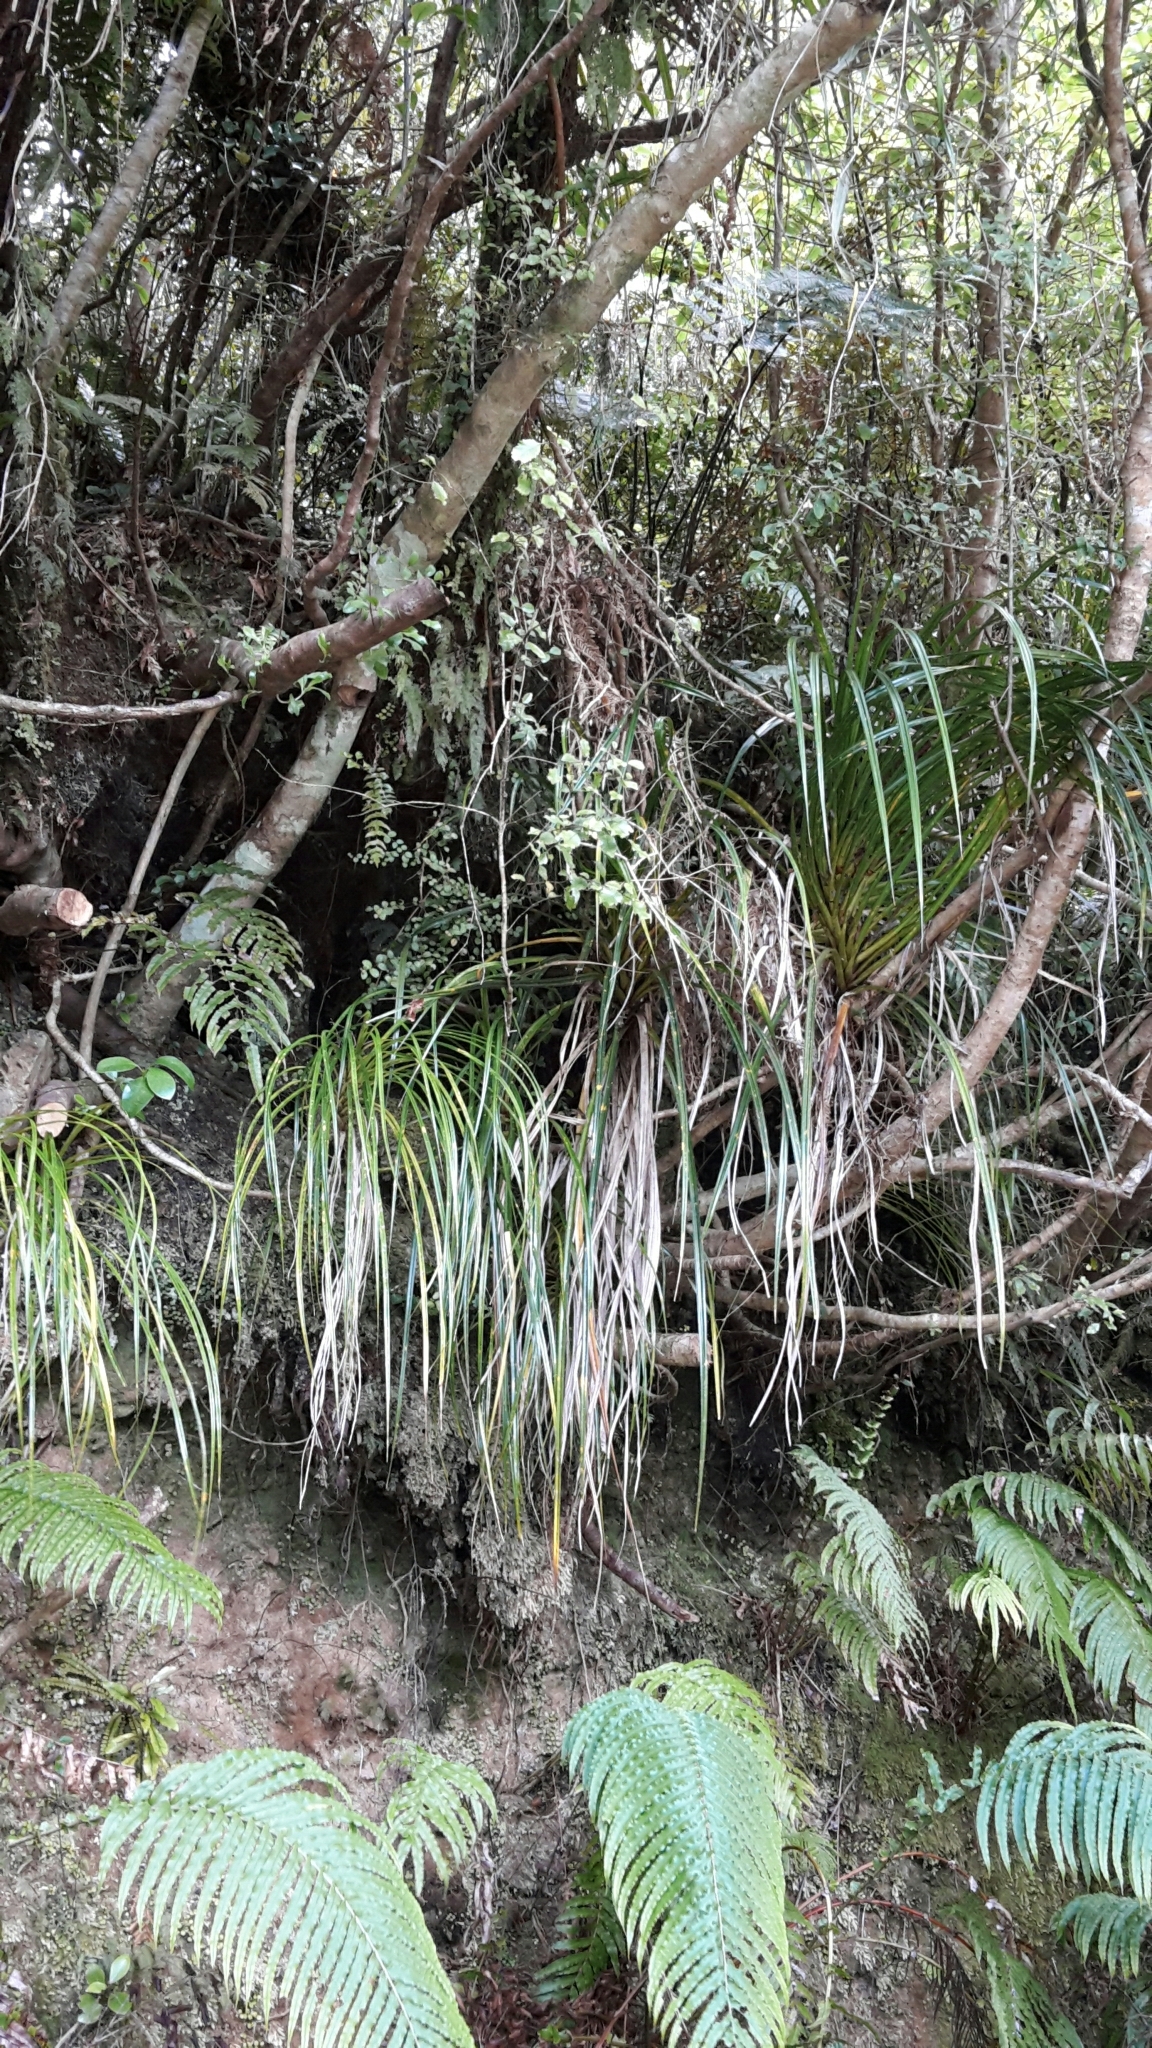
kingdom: Plantae
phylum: Tracheophyta
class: Liliopsida
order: Pandanales
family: Pandanaceae
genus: Freycinetia
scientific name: Freycinetia banksii
